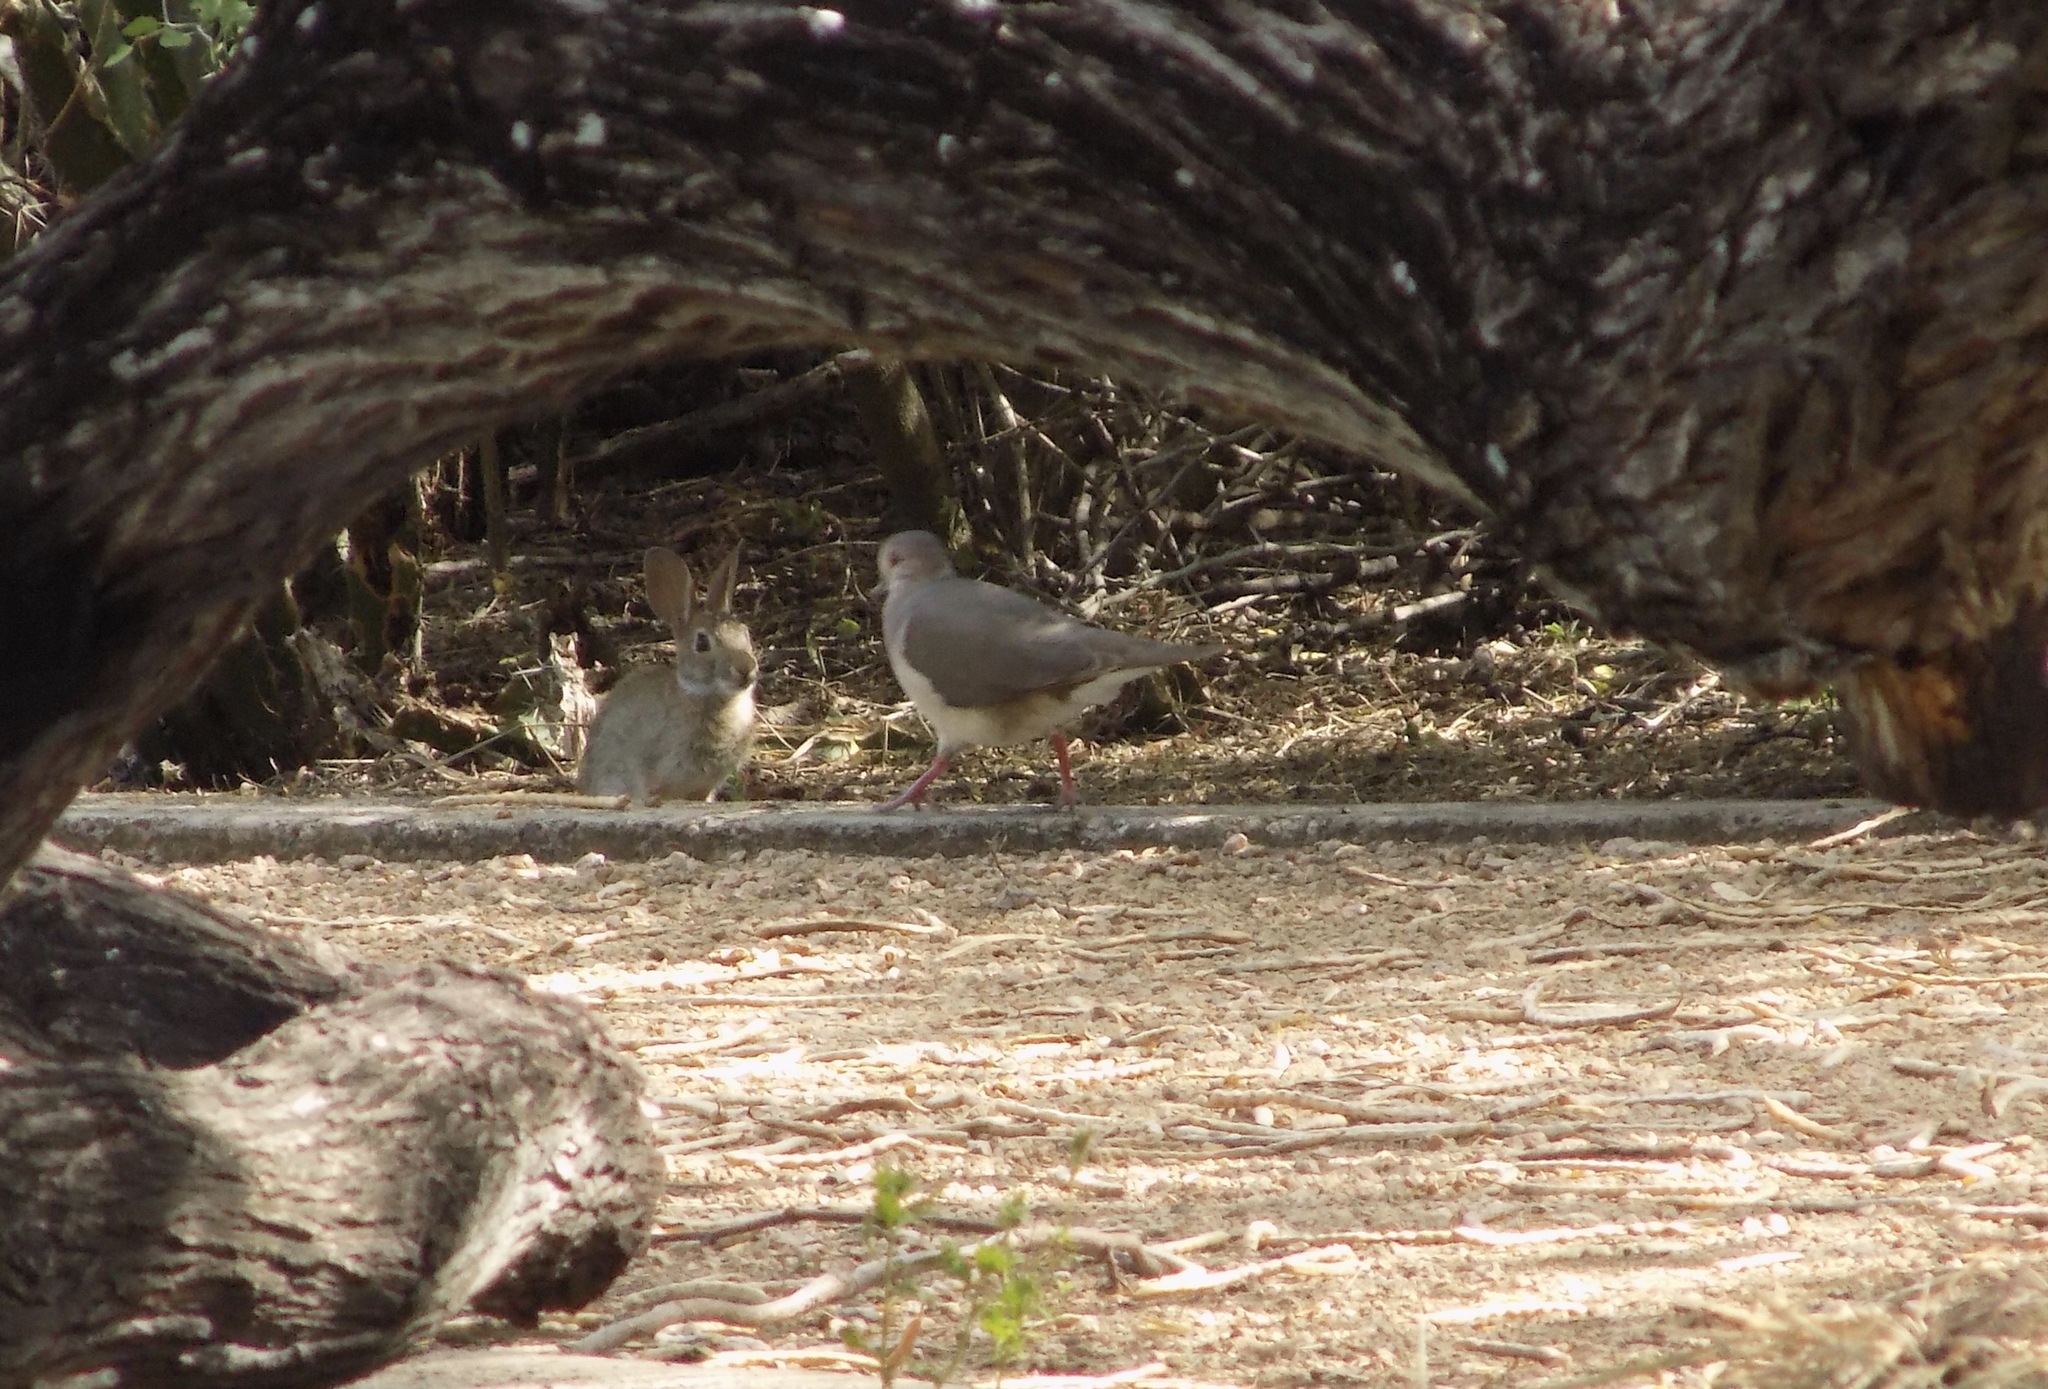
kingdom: Animalia
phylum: Chordata
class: Aves
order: Columbiformes
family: Columbidae
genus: Leptotila
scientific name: Leptotila verreauxi
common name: White-tipped dove
